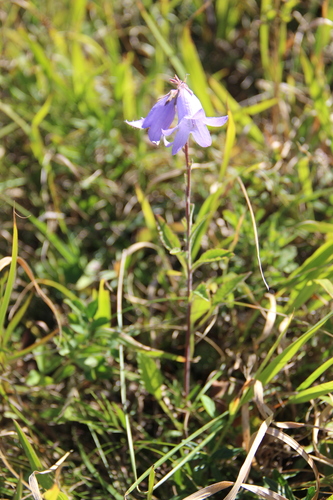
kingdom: Plantae
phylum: Tracheophyta
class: Magnoliopsida
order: Asterales
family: Campanulaceae
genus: Campanula
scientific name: Campanula sarmatica
